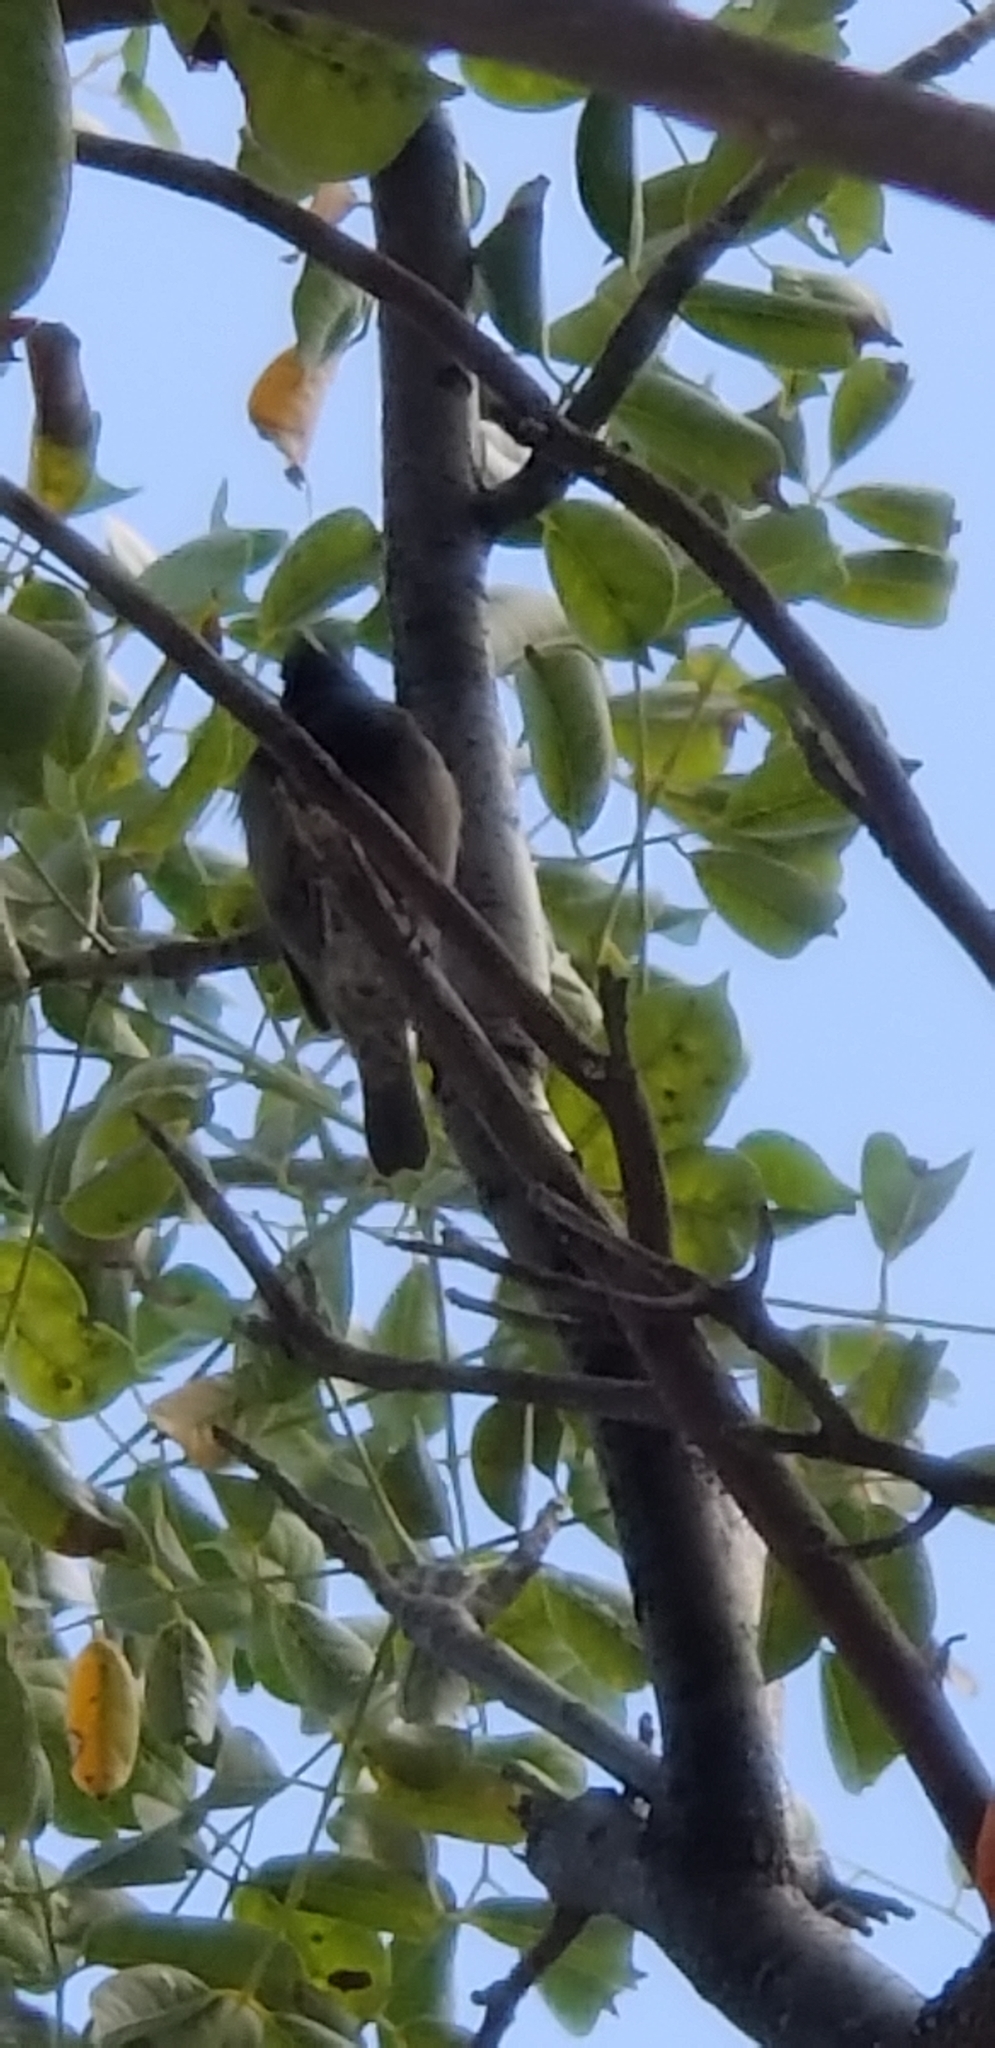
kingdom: Animalia
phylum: Chordata
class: Aves
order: Passeriformes
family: Thraupidae
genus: Melanospiza
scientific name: Melanospiza bicolor
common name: Black-faced grassquit
